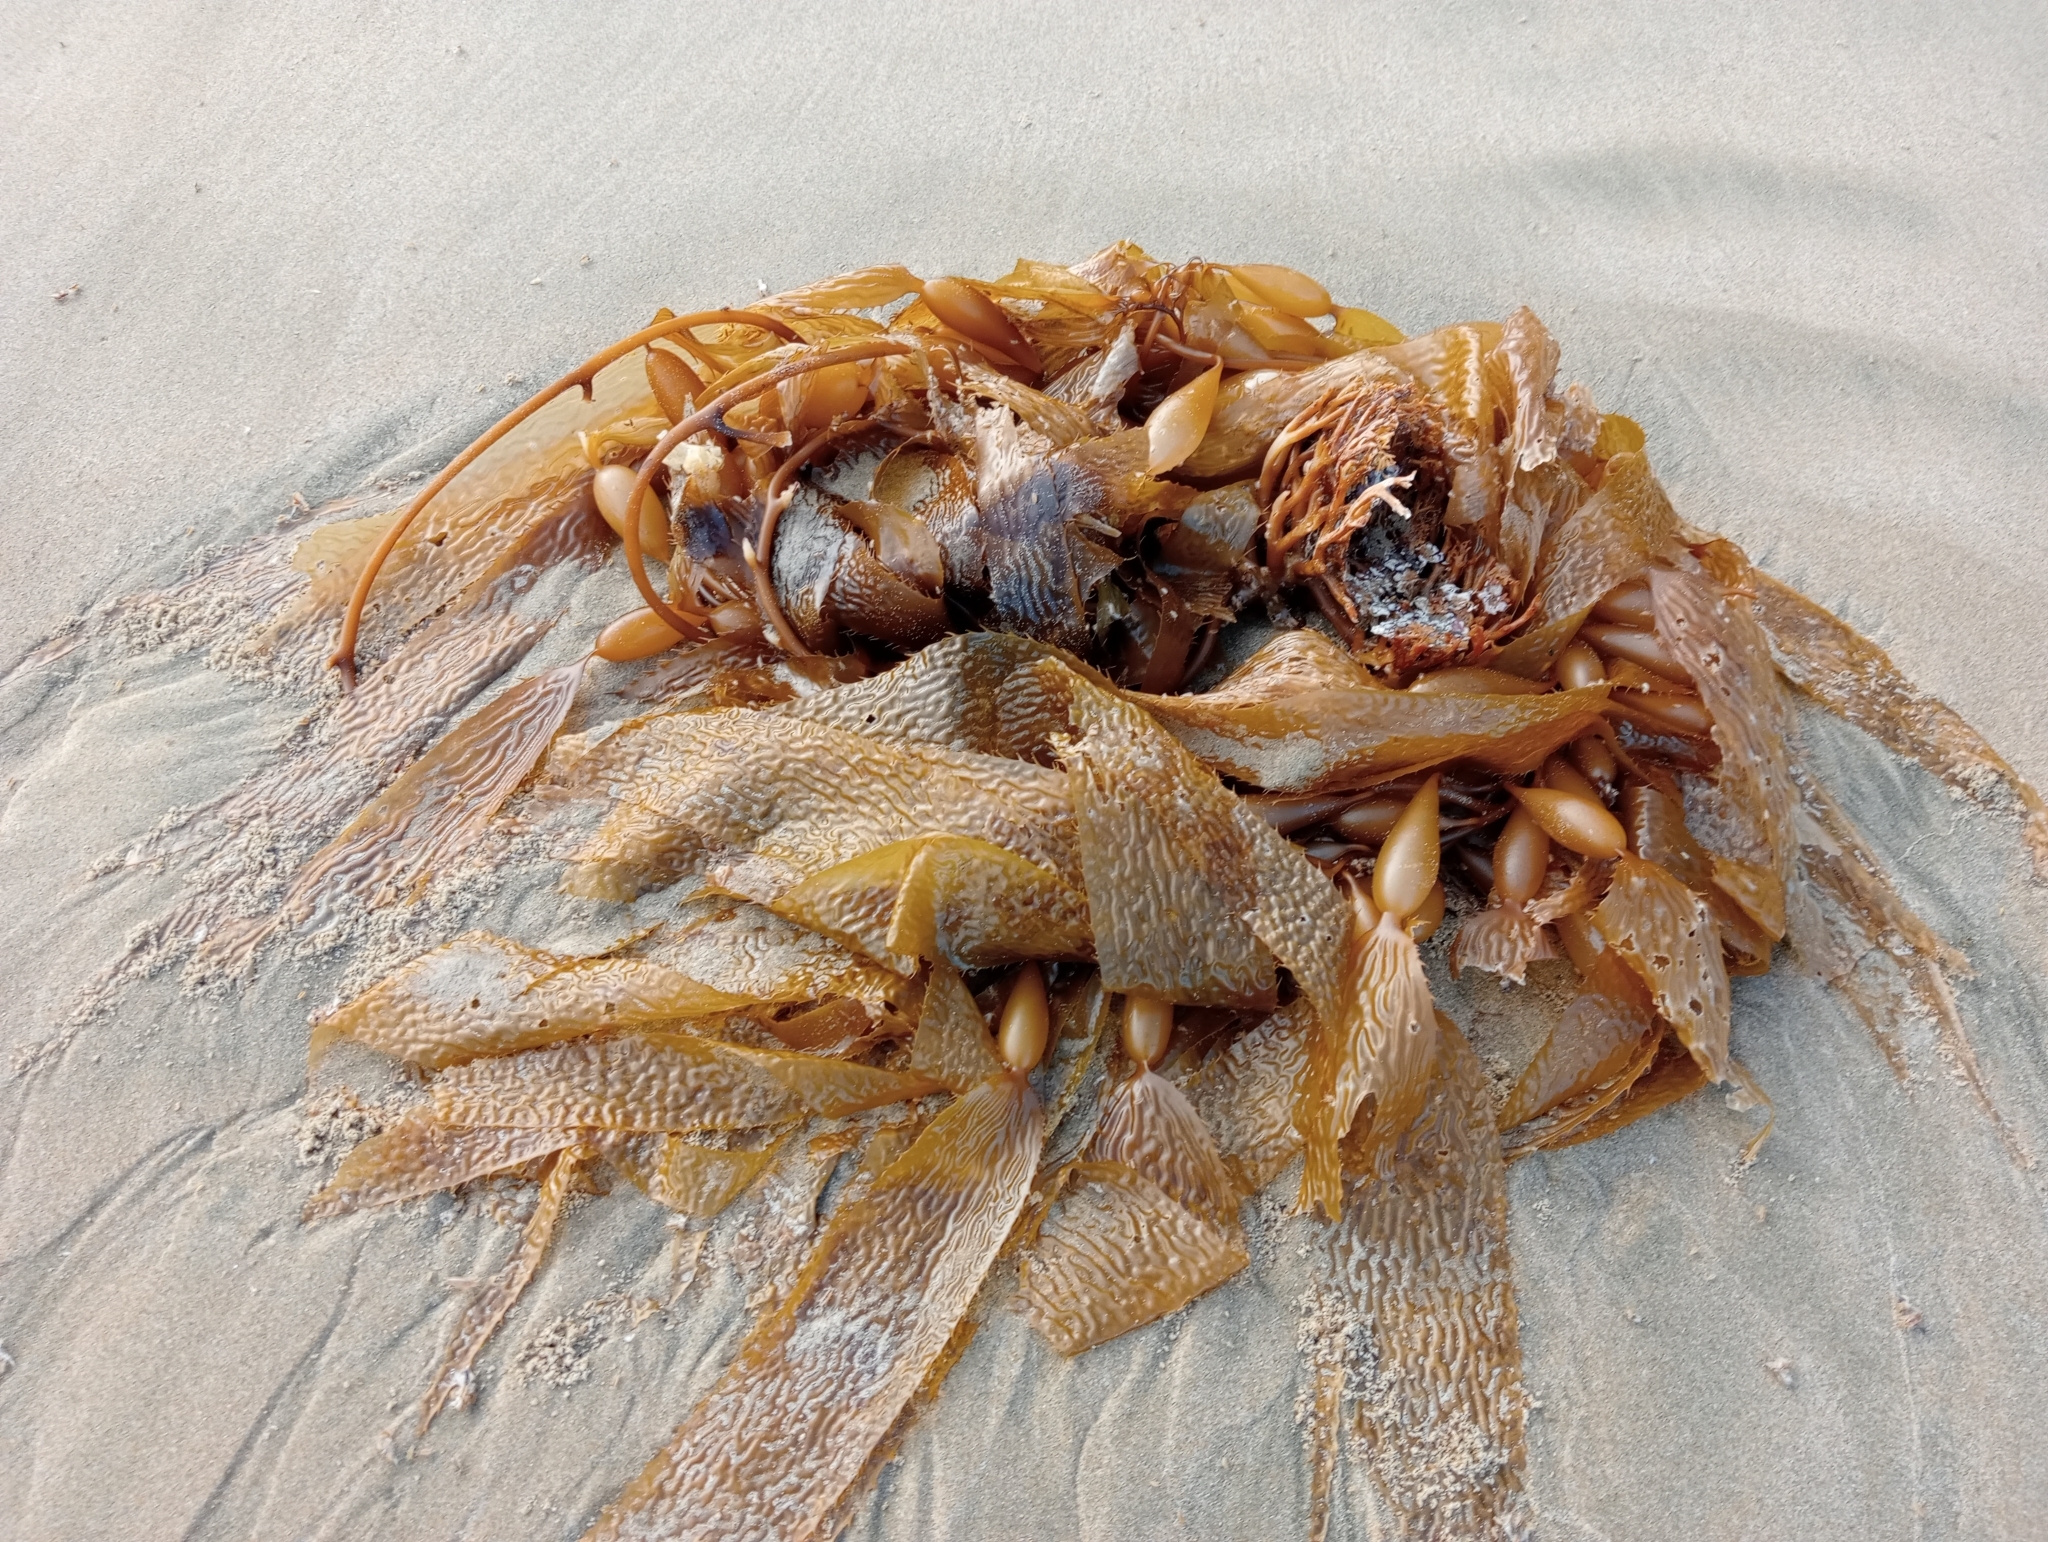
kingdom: Chromista
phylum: Ochrophyta
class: Phaeophyceae
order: Laminariales
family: Laminariaceae
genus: Macrocystis
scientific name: Macrocystis pyrifera
